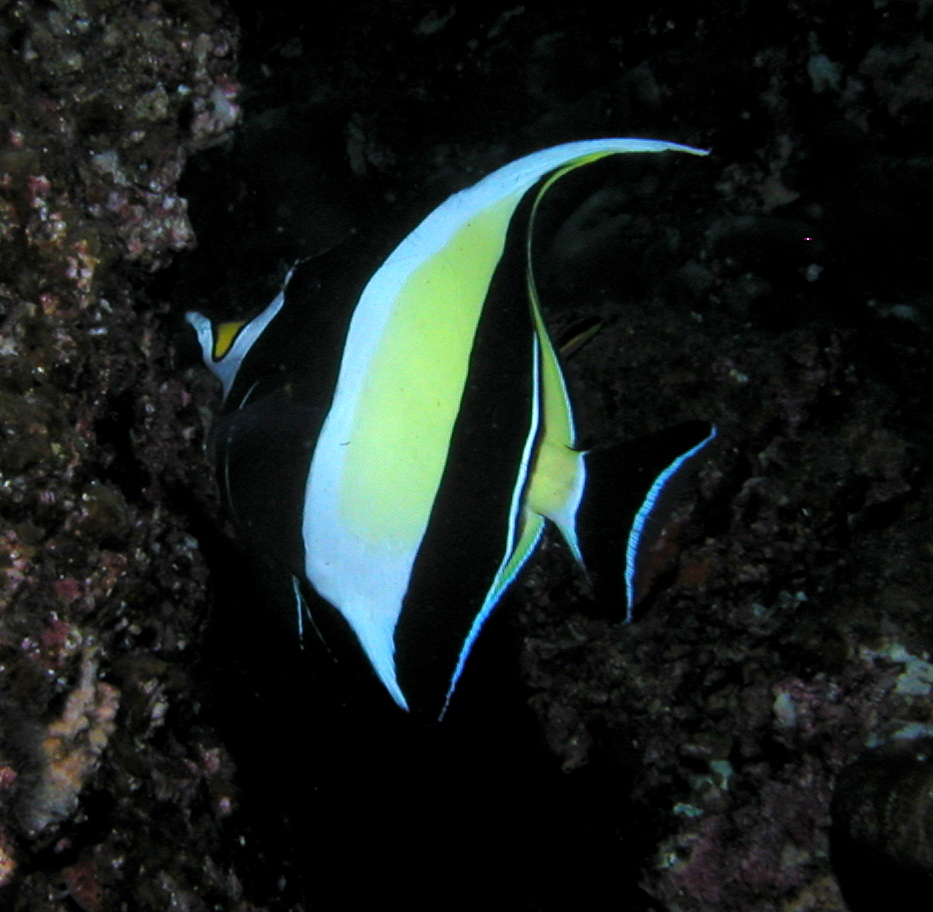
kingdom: Animalia
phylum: Chordata
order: Perciformes
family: Zanclidae
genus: Zanclus
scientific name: Zanclus cornutus
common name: Moorish idol
